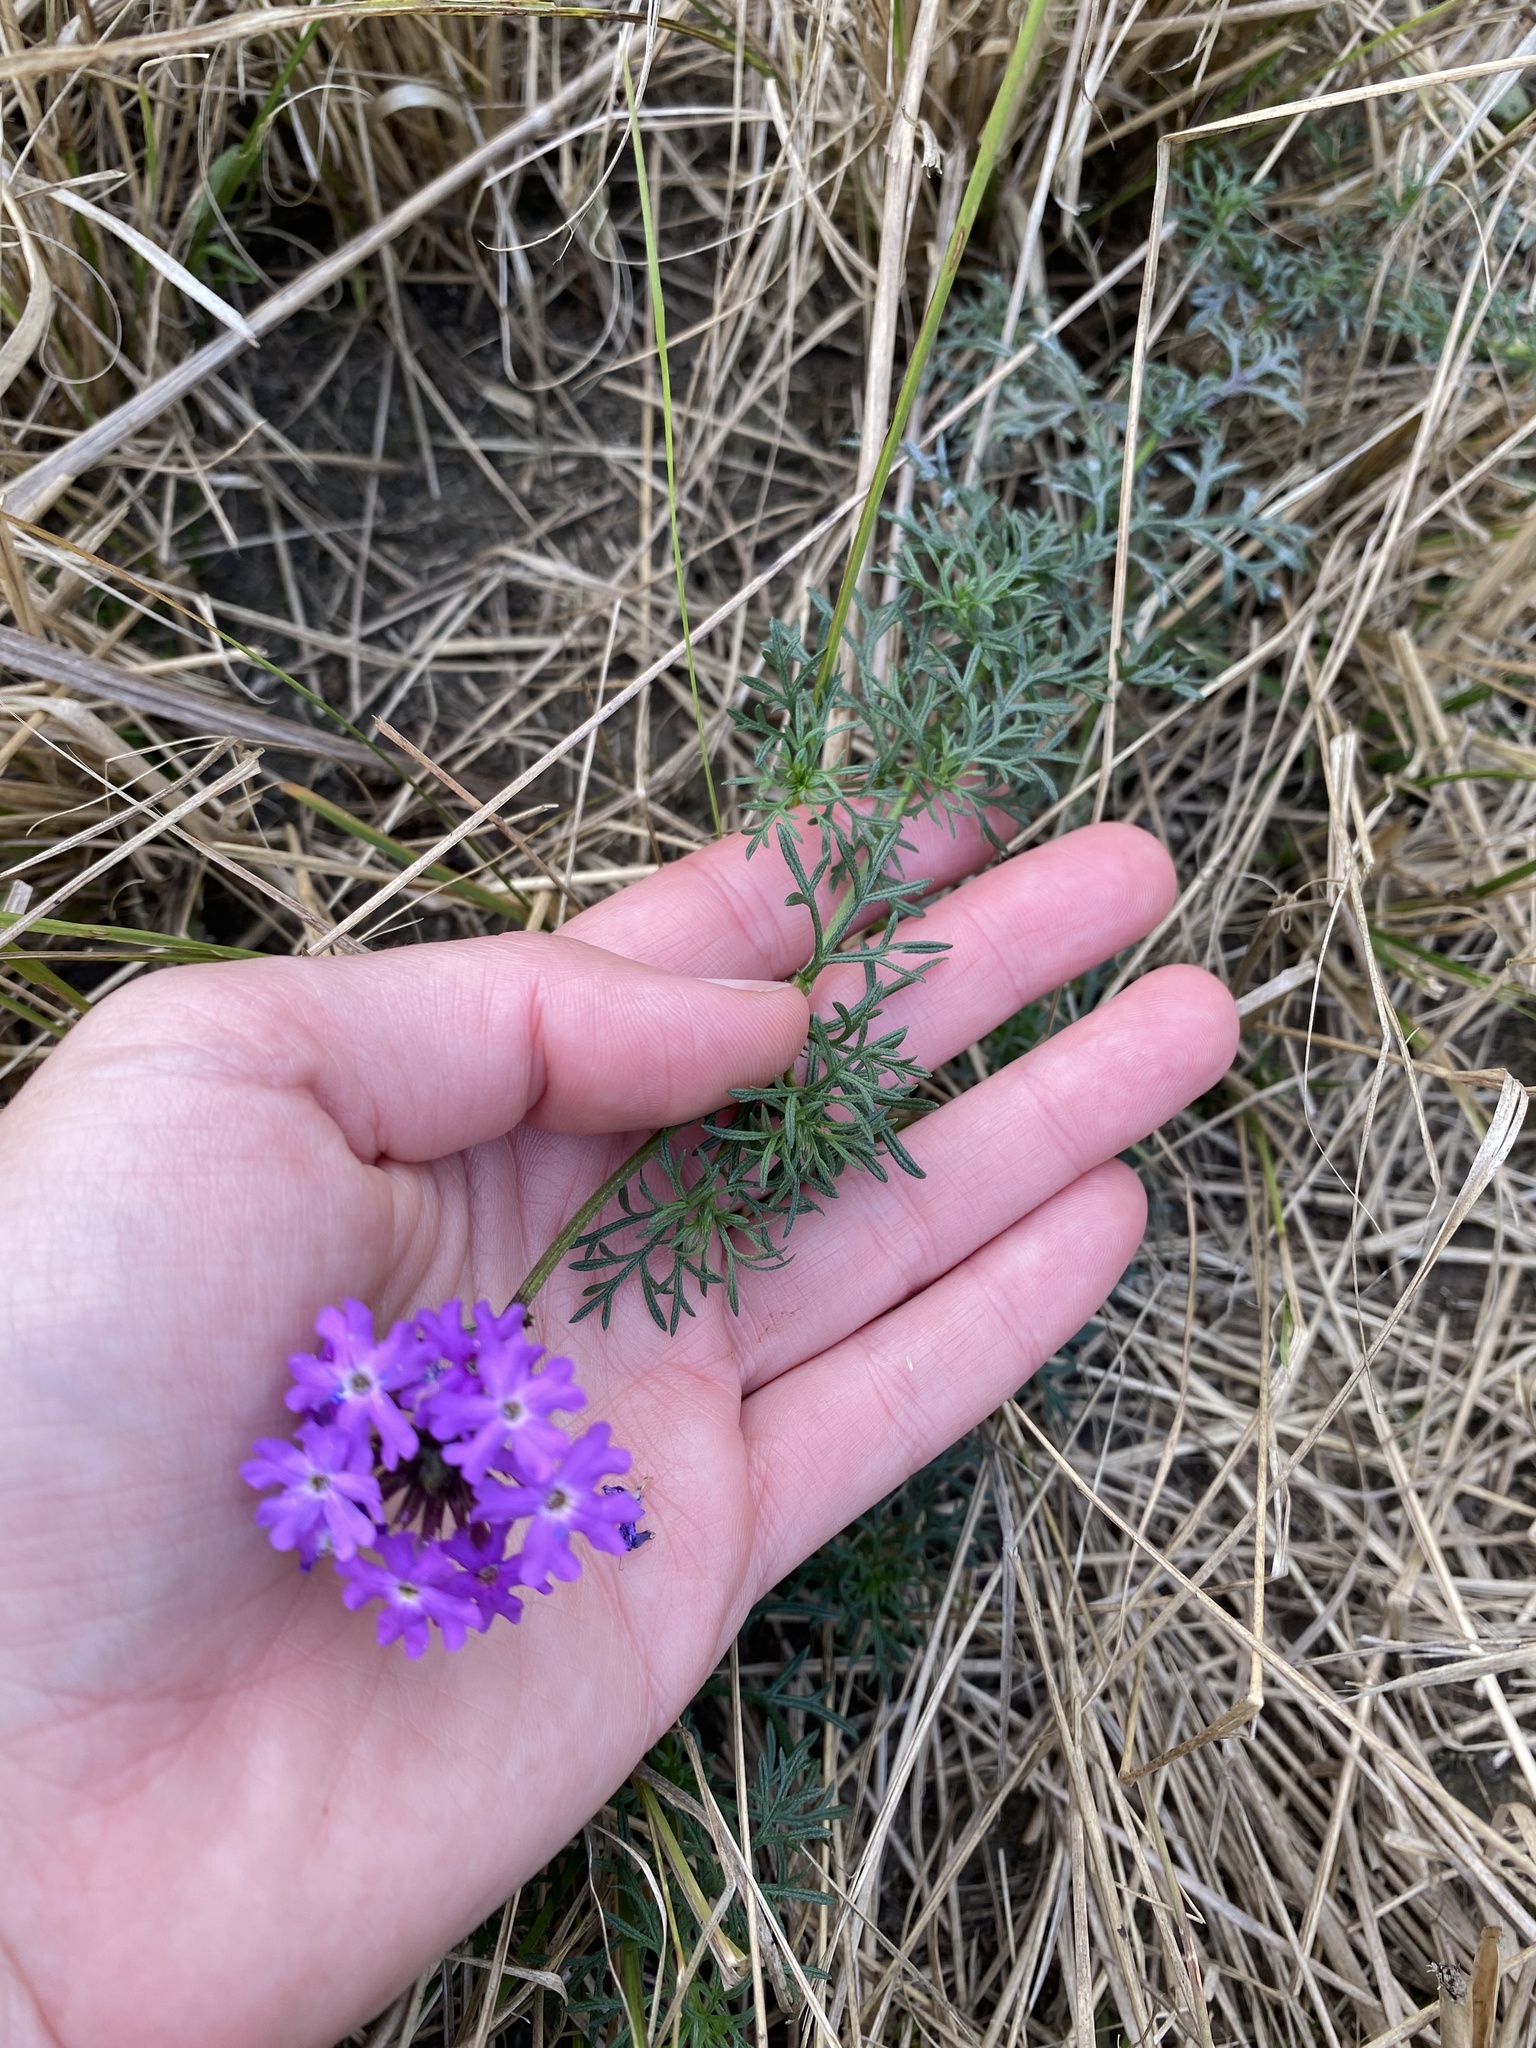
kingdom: Plantae
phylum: Tracheophyta
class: Magnoliopsida
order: Lamiales
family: Verbenaceae
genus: Verbena
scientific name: Verbena aristigera
